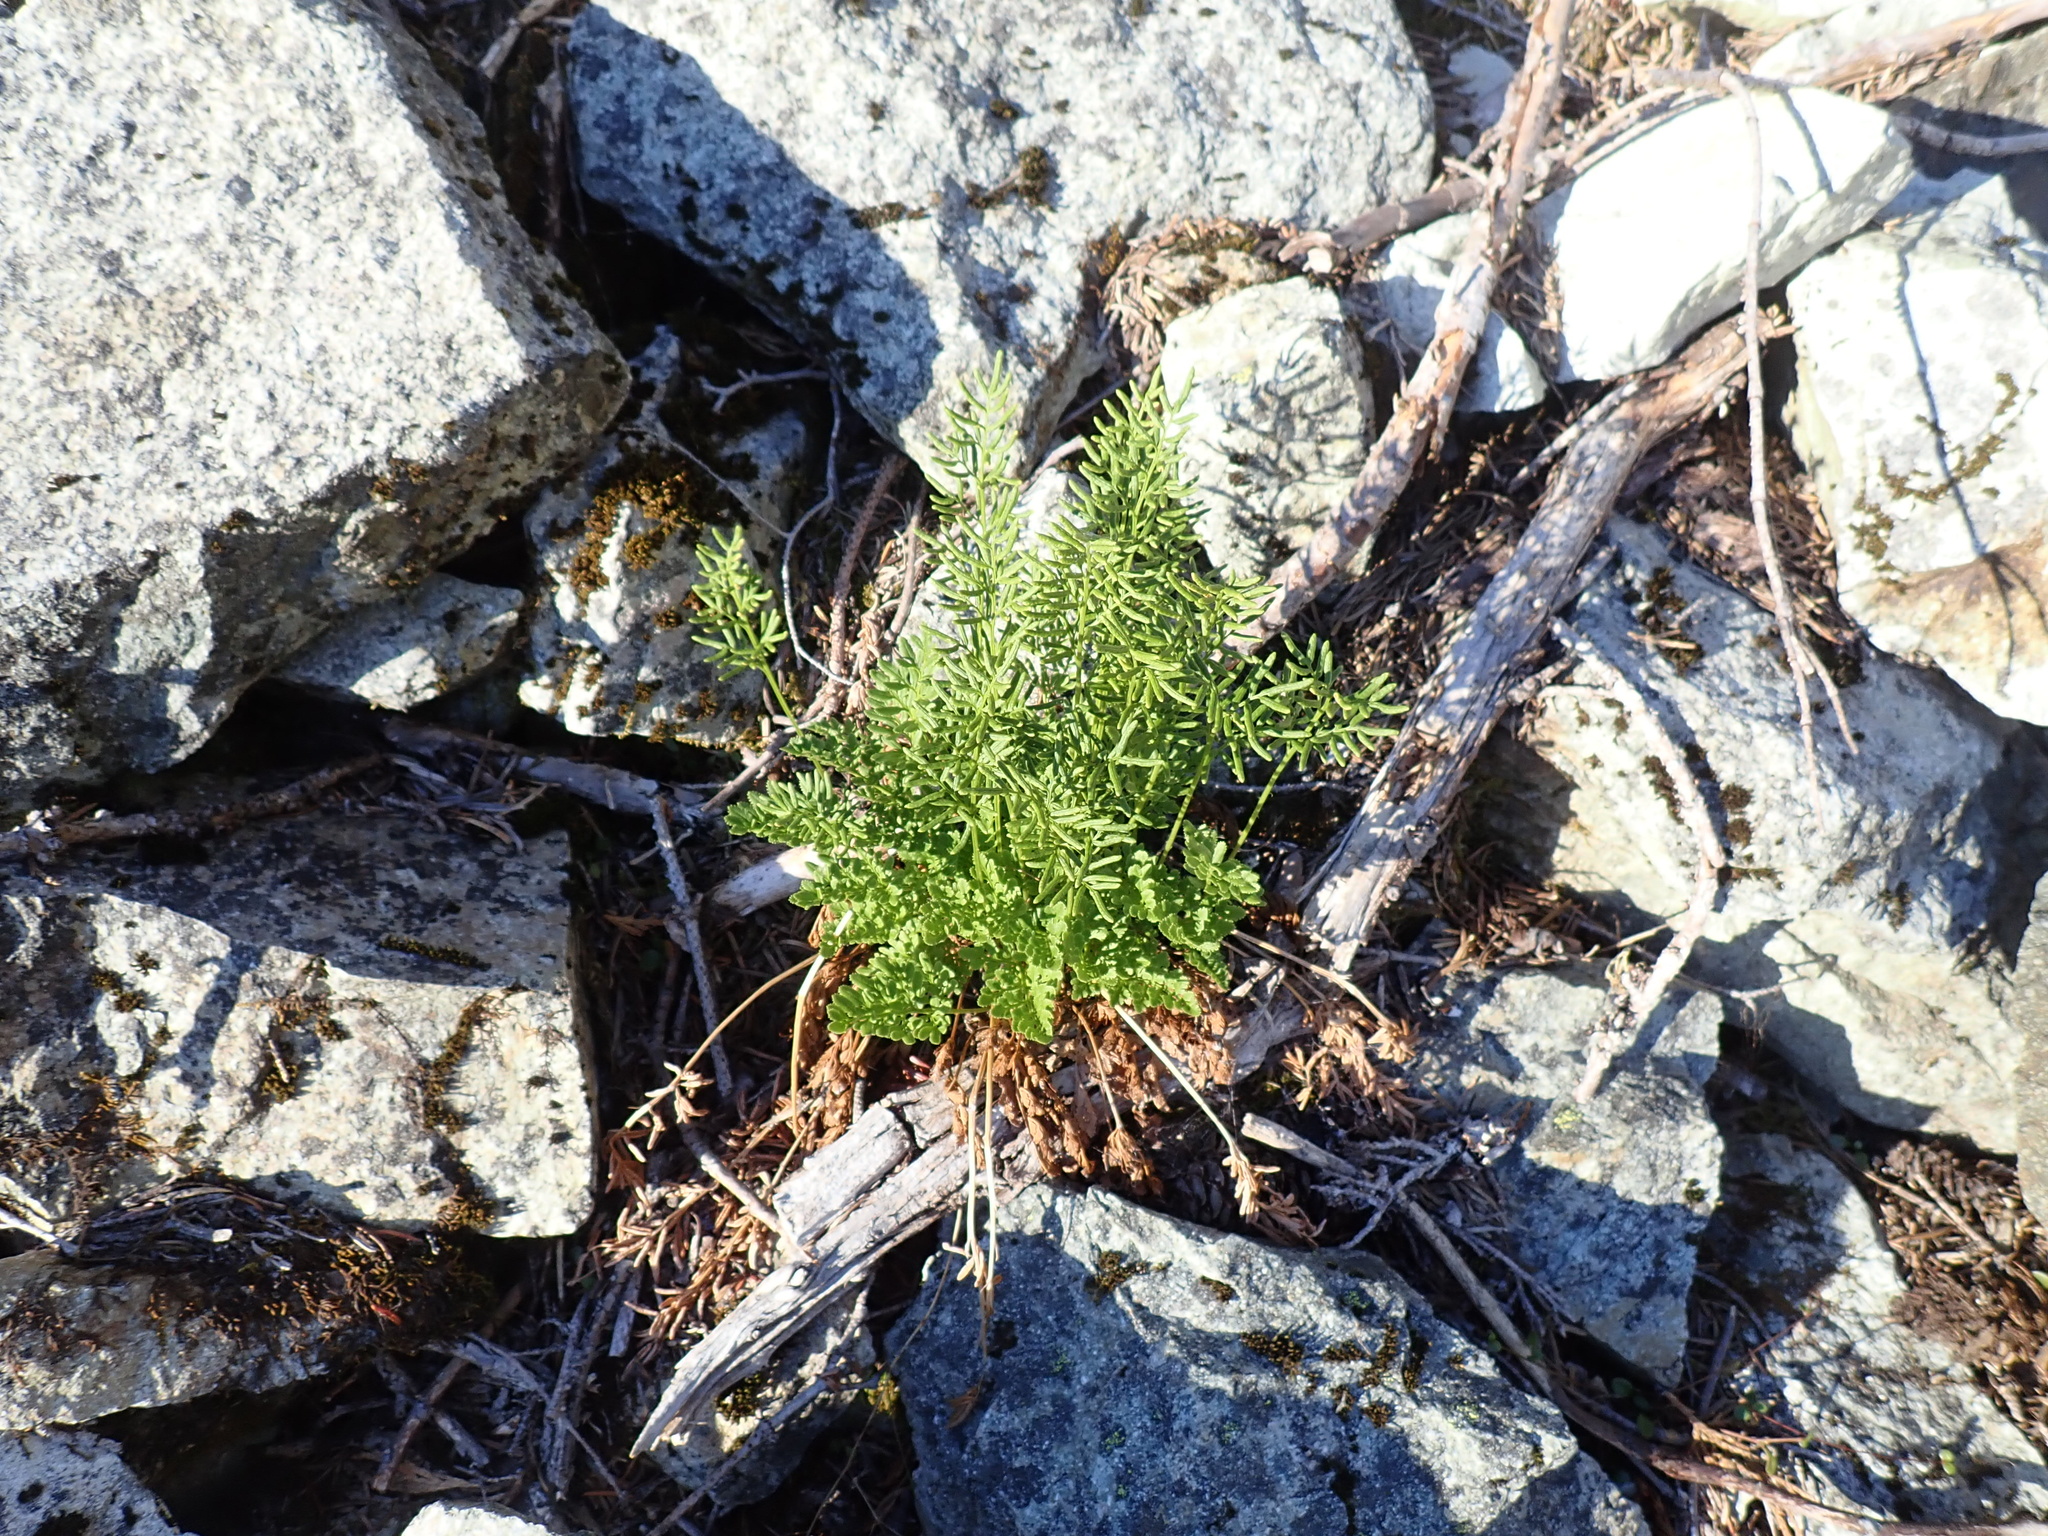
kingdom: Plantae
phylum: Tracheophyta
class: Polypodiopsida
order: Polypodiales
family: Pteridaceae
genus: Cryptogramma
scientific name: Cryptogramma acrostichoides
